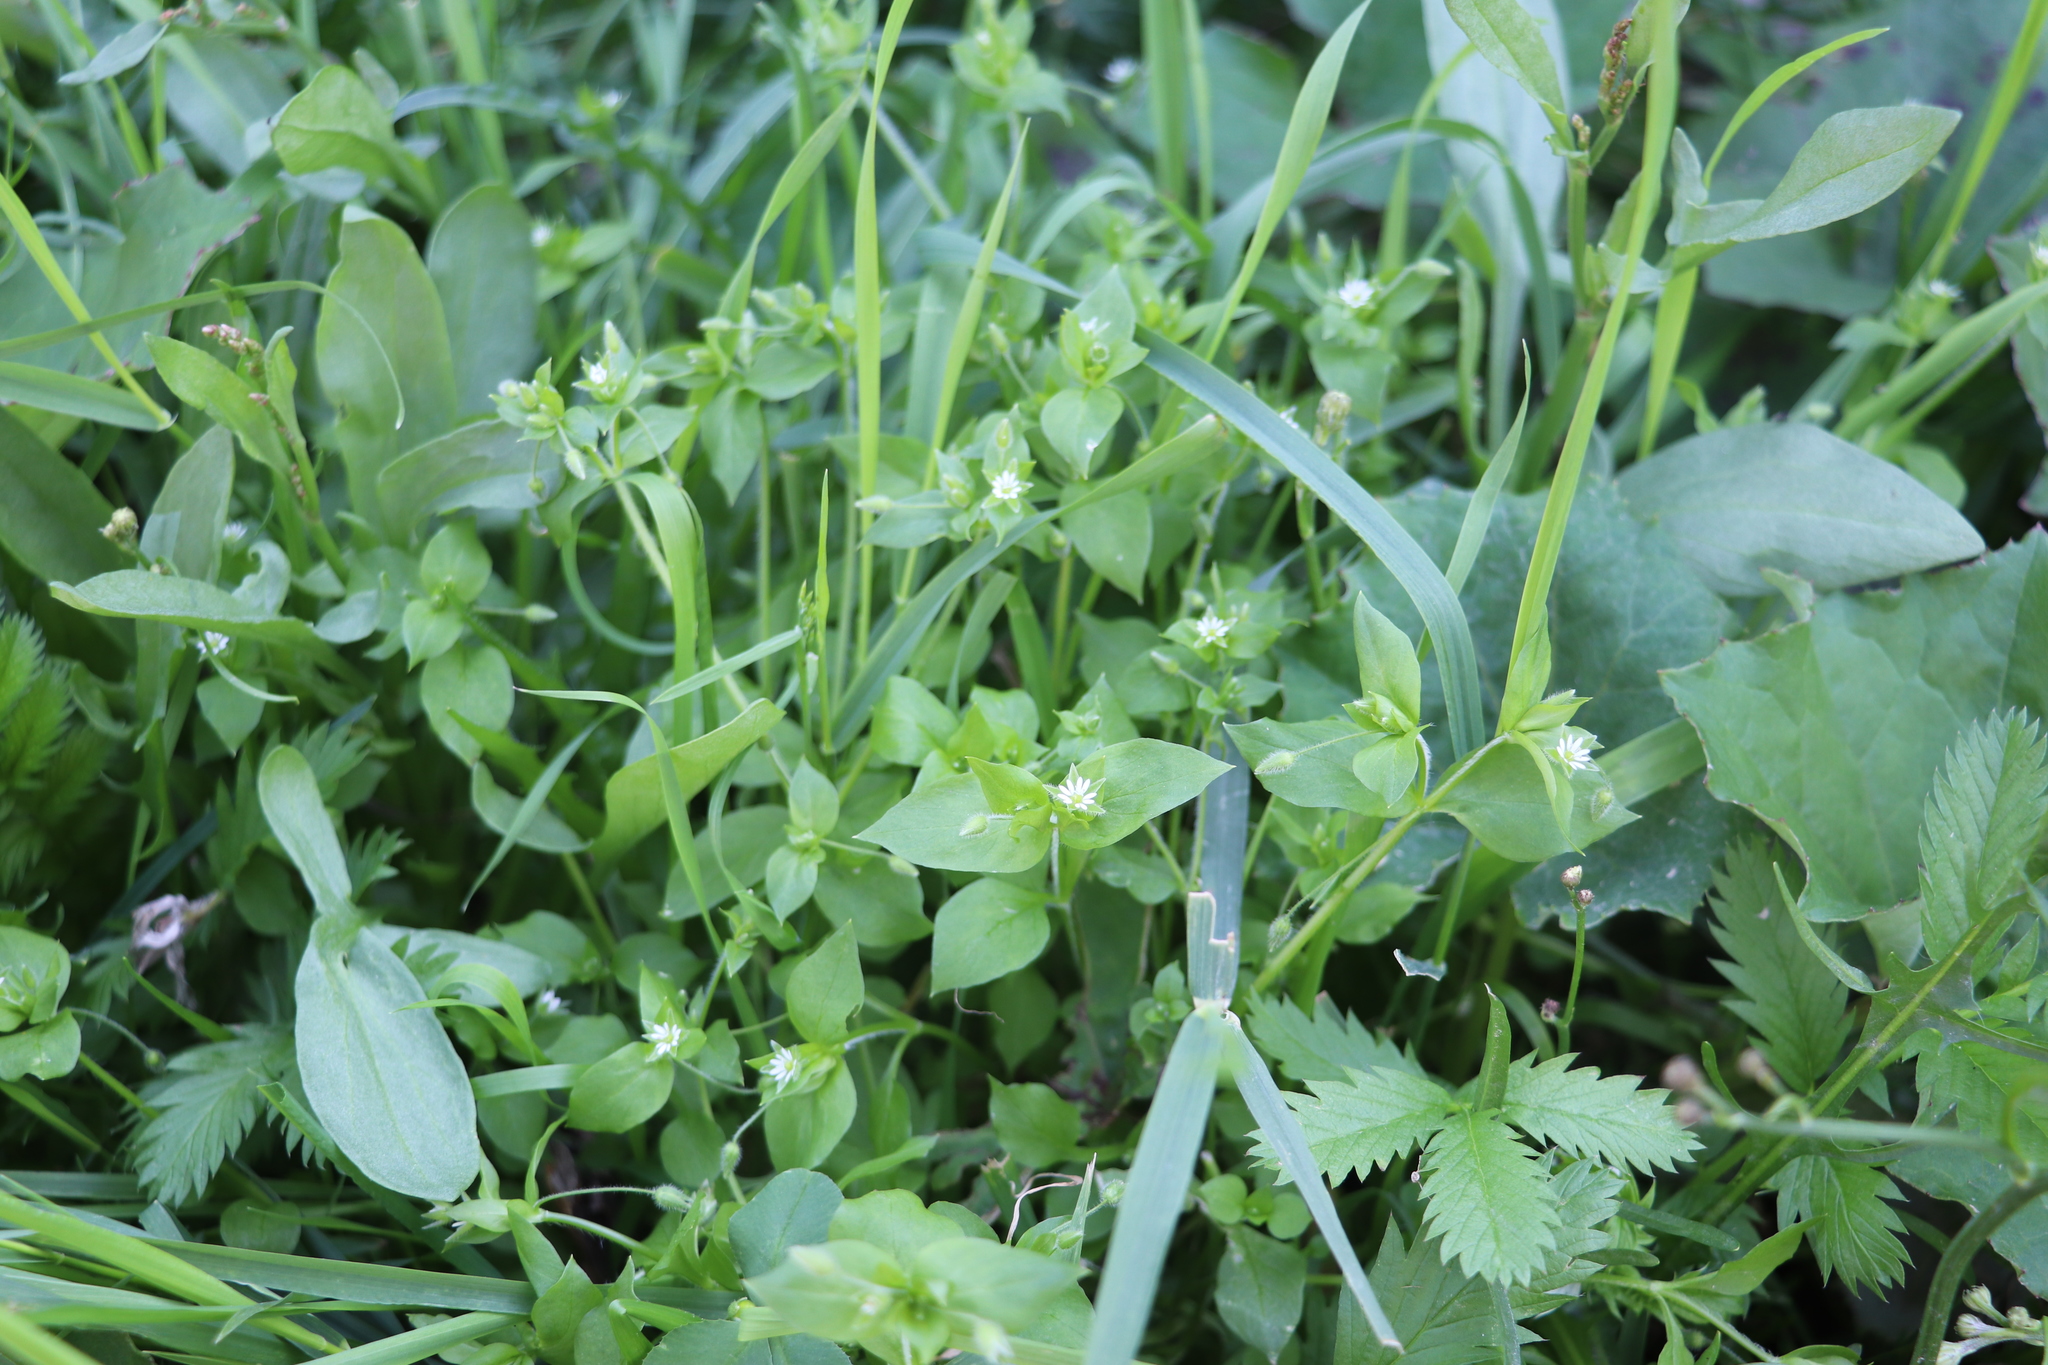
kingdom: Plantae
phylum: Tracheophyta
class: Magnoliopsida
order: Caryophyllales
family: Caryophyllaceae
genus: Stellaria
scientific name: Stellaria media
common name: Common chickweed
